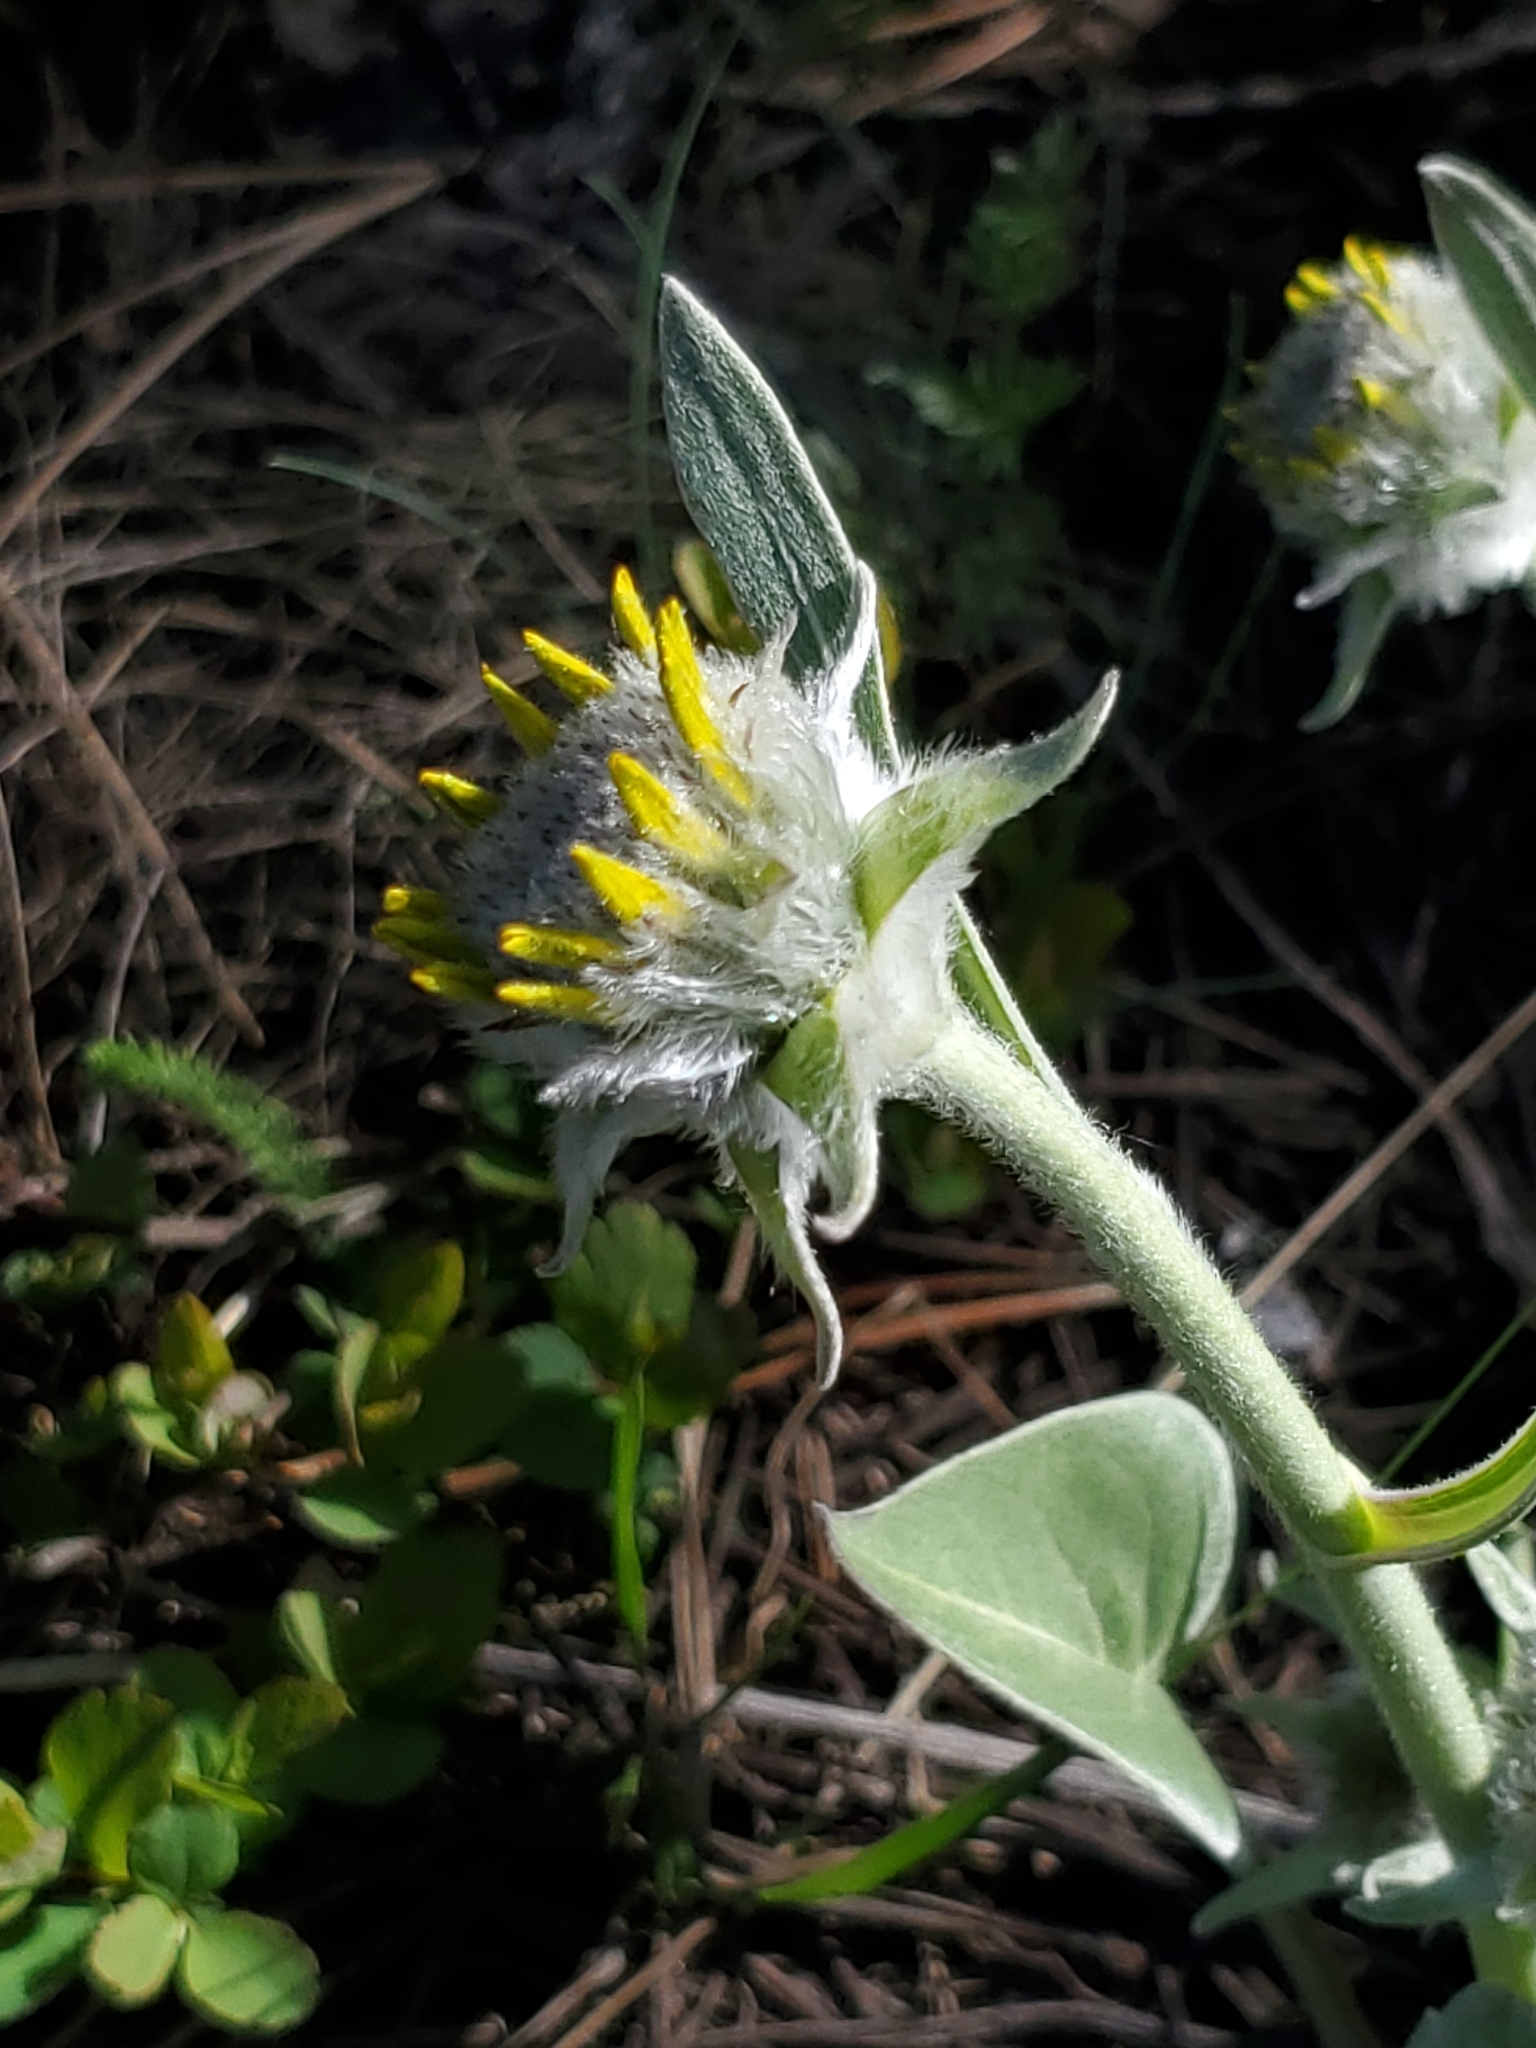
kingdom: Plantae
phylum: Tracheophyta
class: Magnoliopsida
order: Asterales
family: Asteraceae
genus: Wyethia
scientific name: Wyethia sagittata
